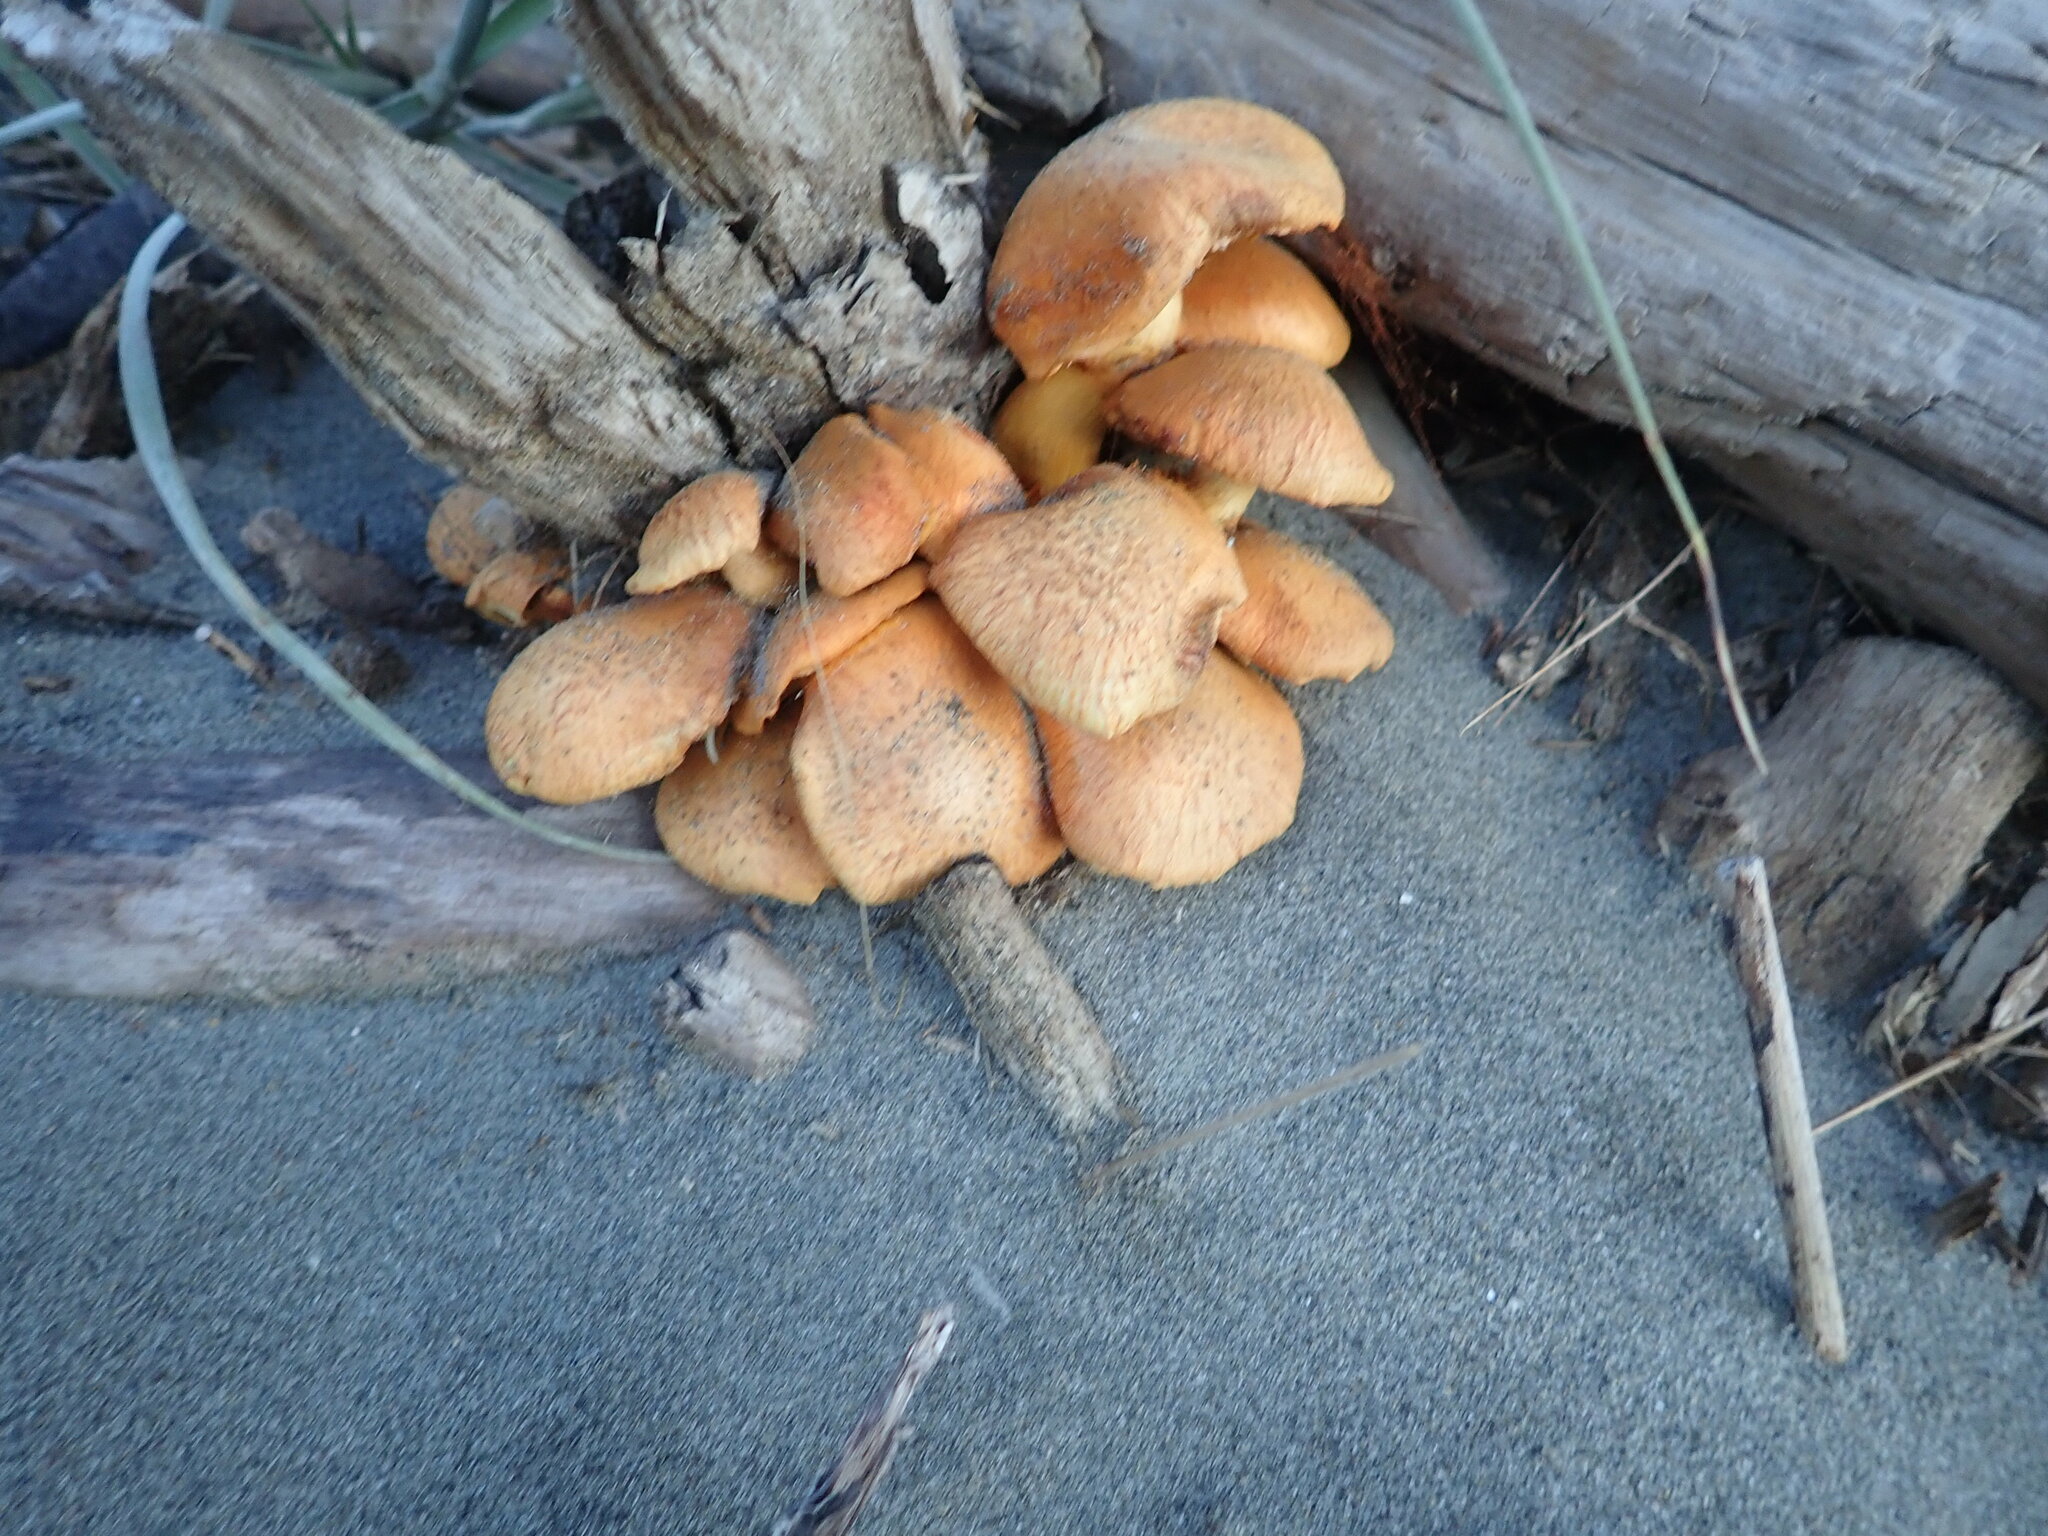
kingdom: Fungi
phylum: Basidiomycota
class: Agaricomycetes
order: Agaricales
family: Hymenogastraceae
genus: Gymnopilus
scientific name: Gymnopilus junonius
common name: Spectacular rustgill
